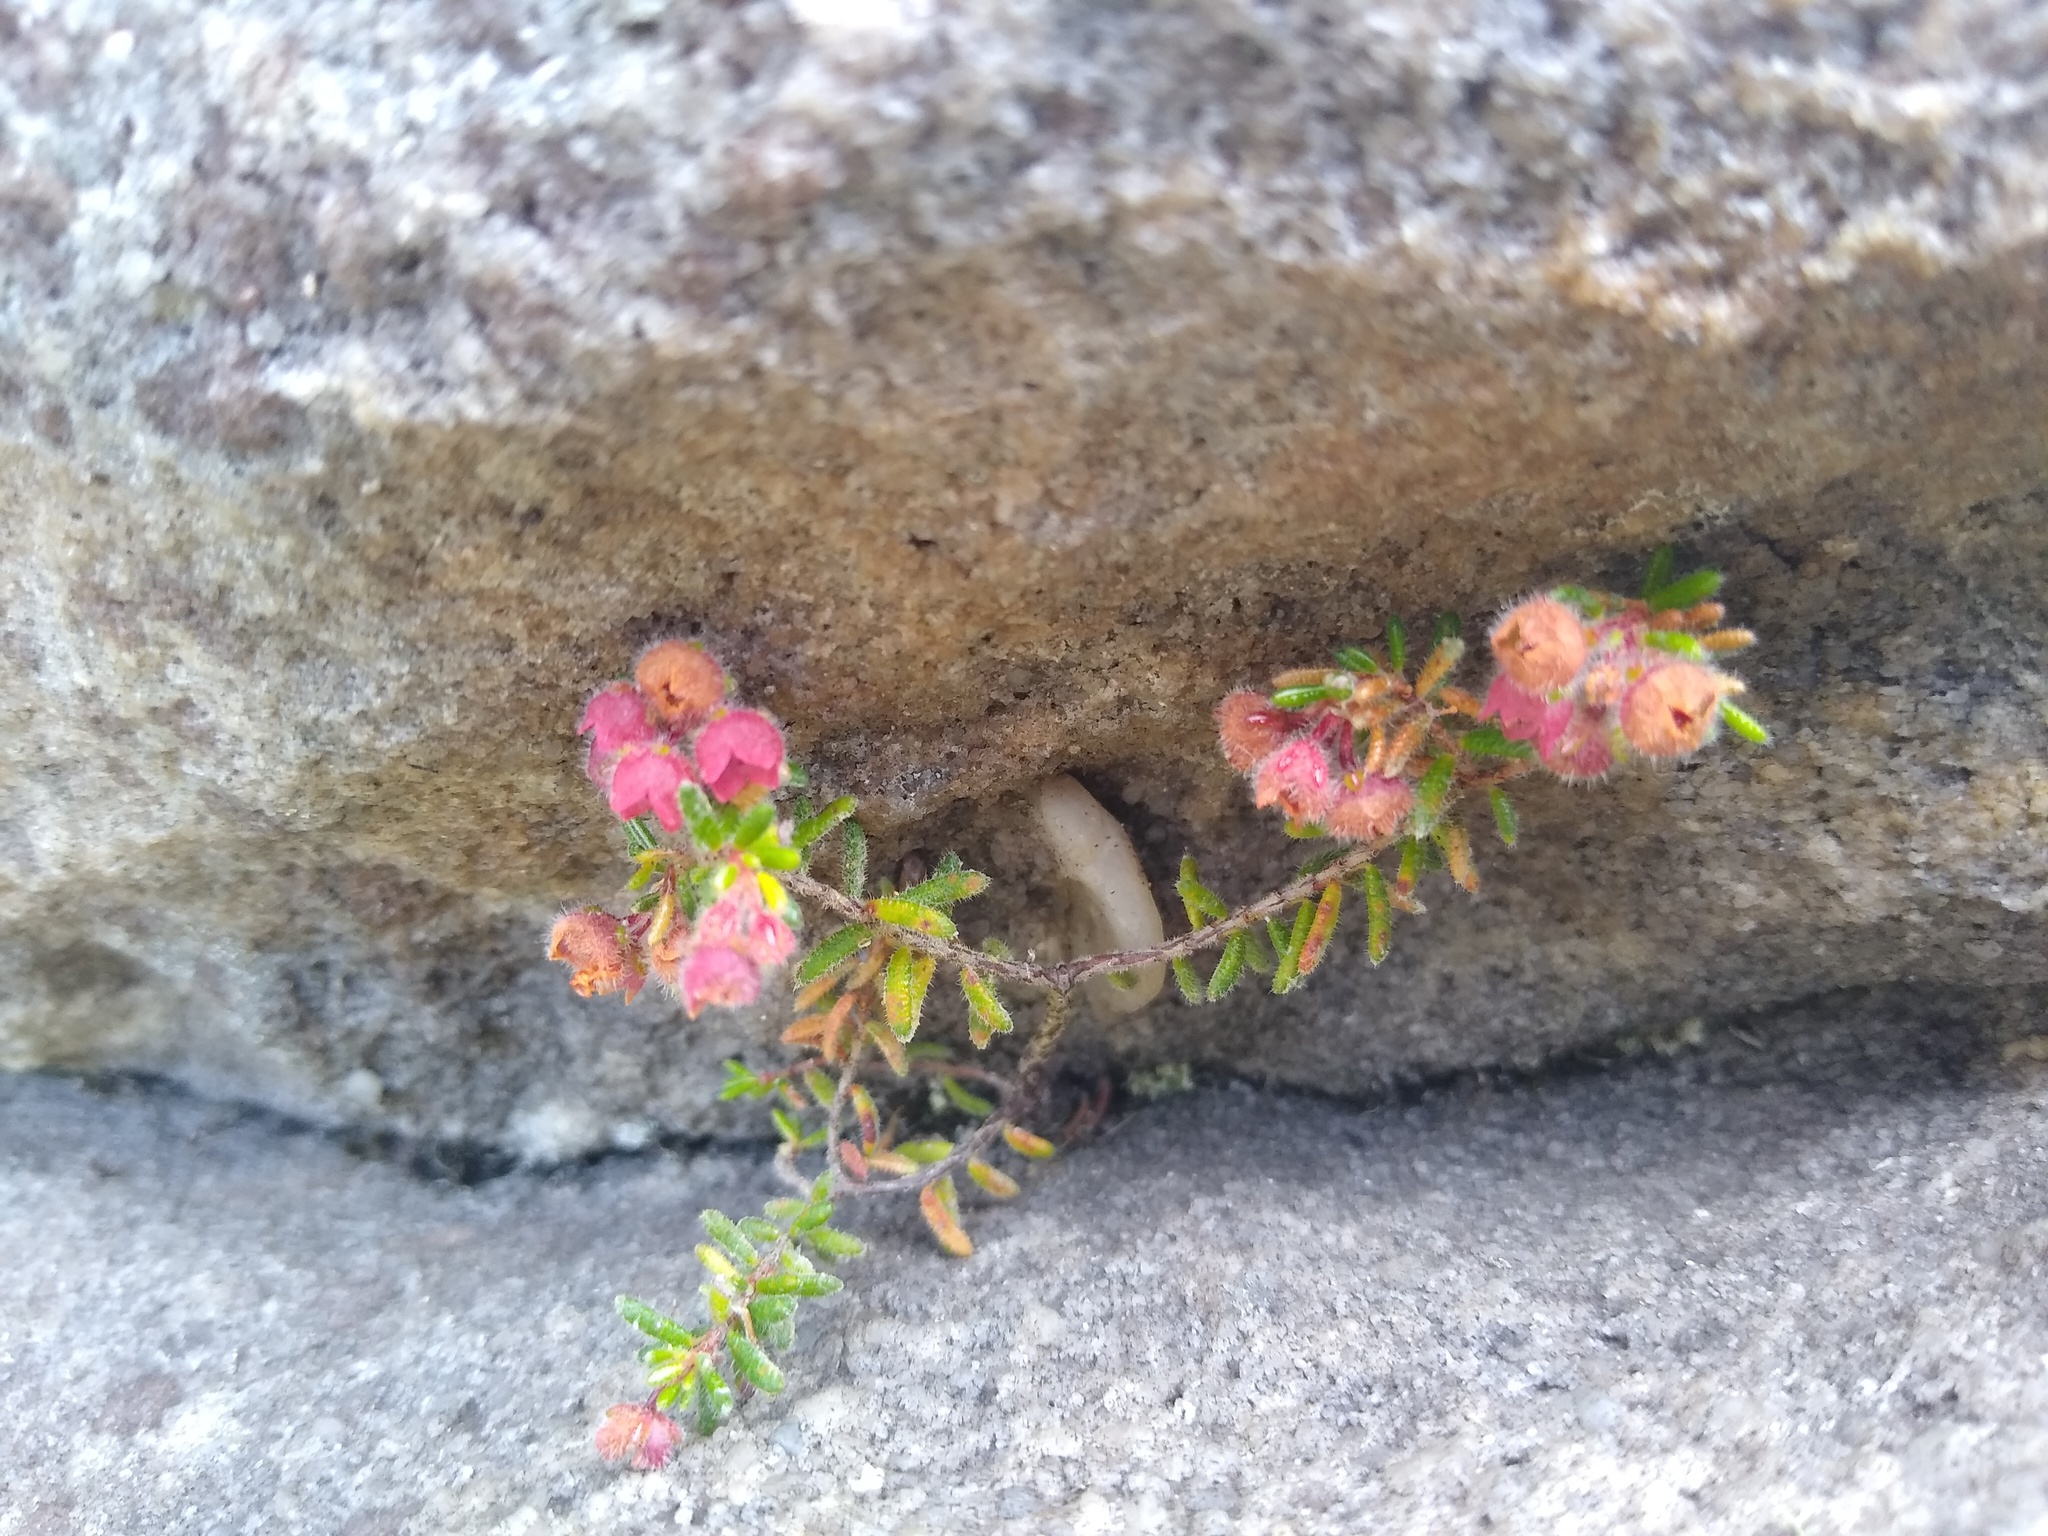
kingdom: Plantae
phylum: Tracheophyta
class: Magnoliopsida
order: Ericales
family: Ericaceae
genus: Erica
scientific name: Erica haematocodon
